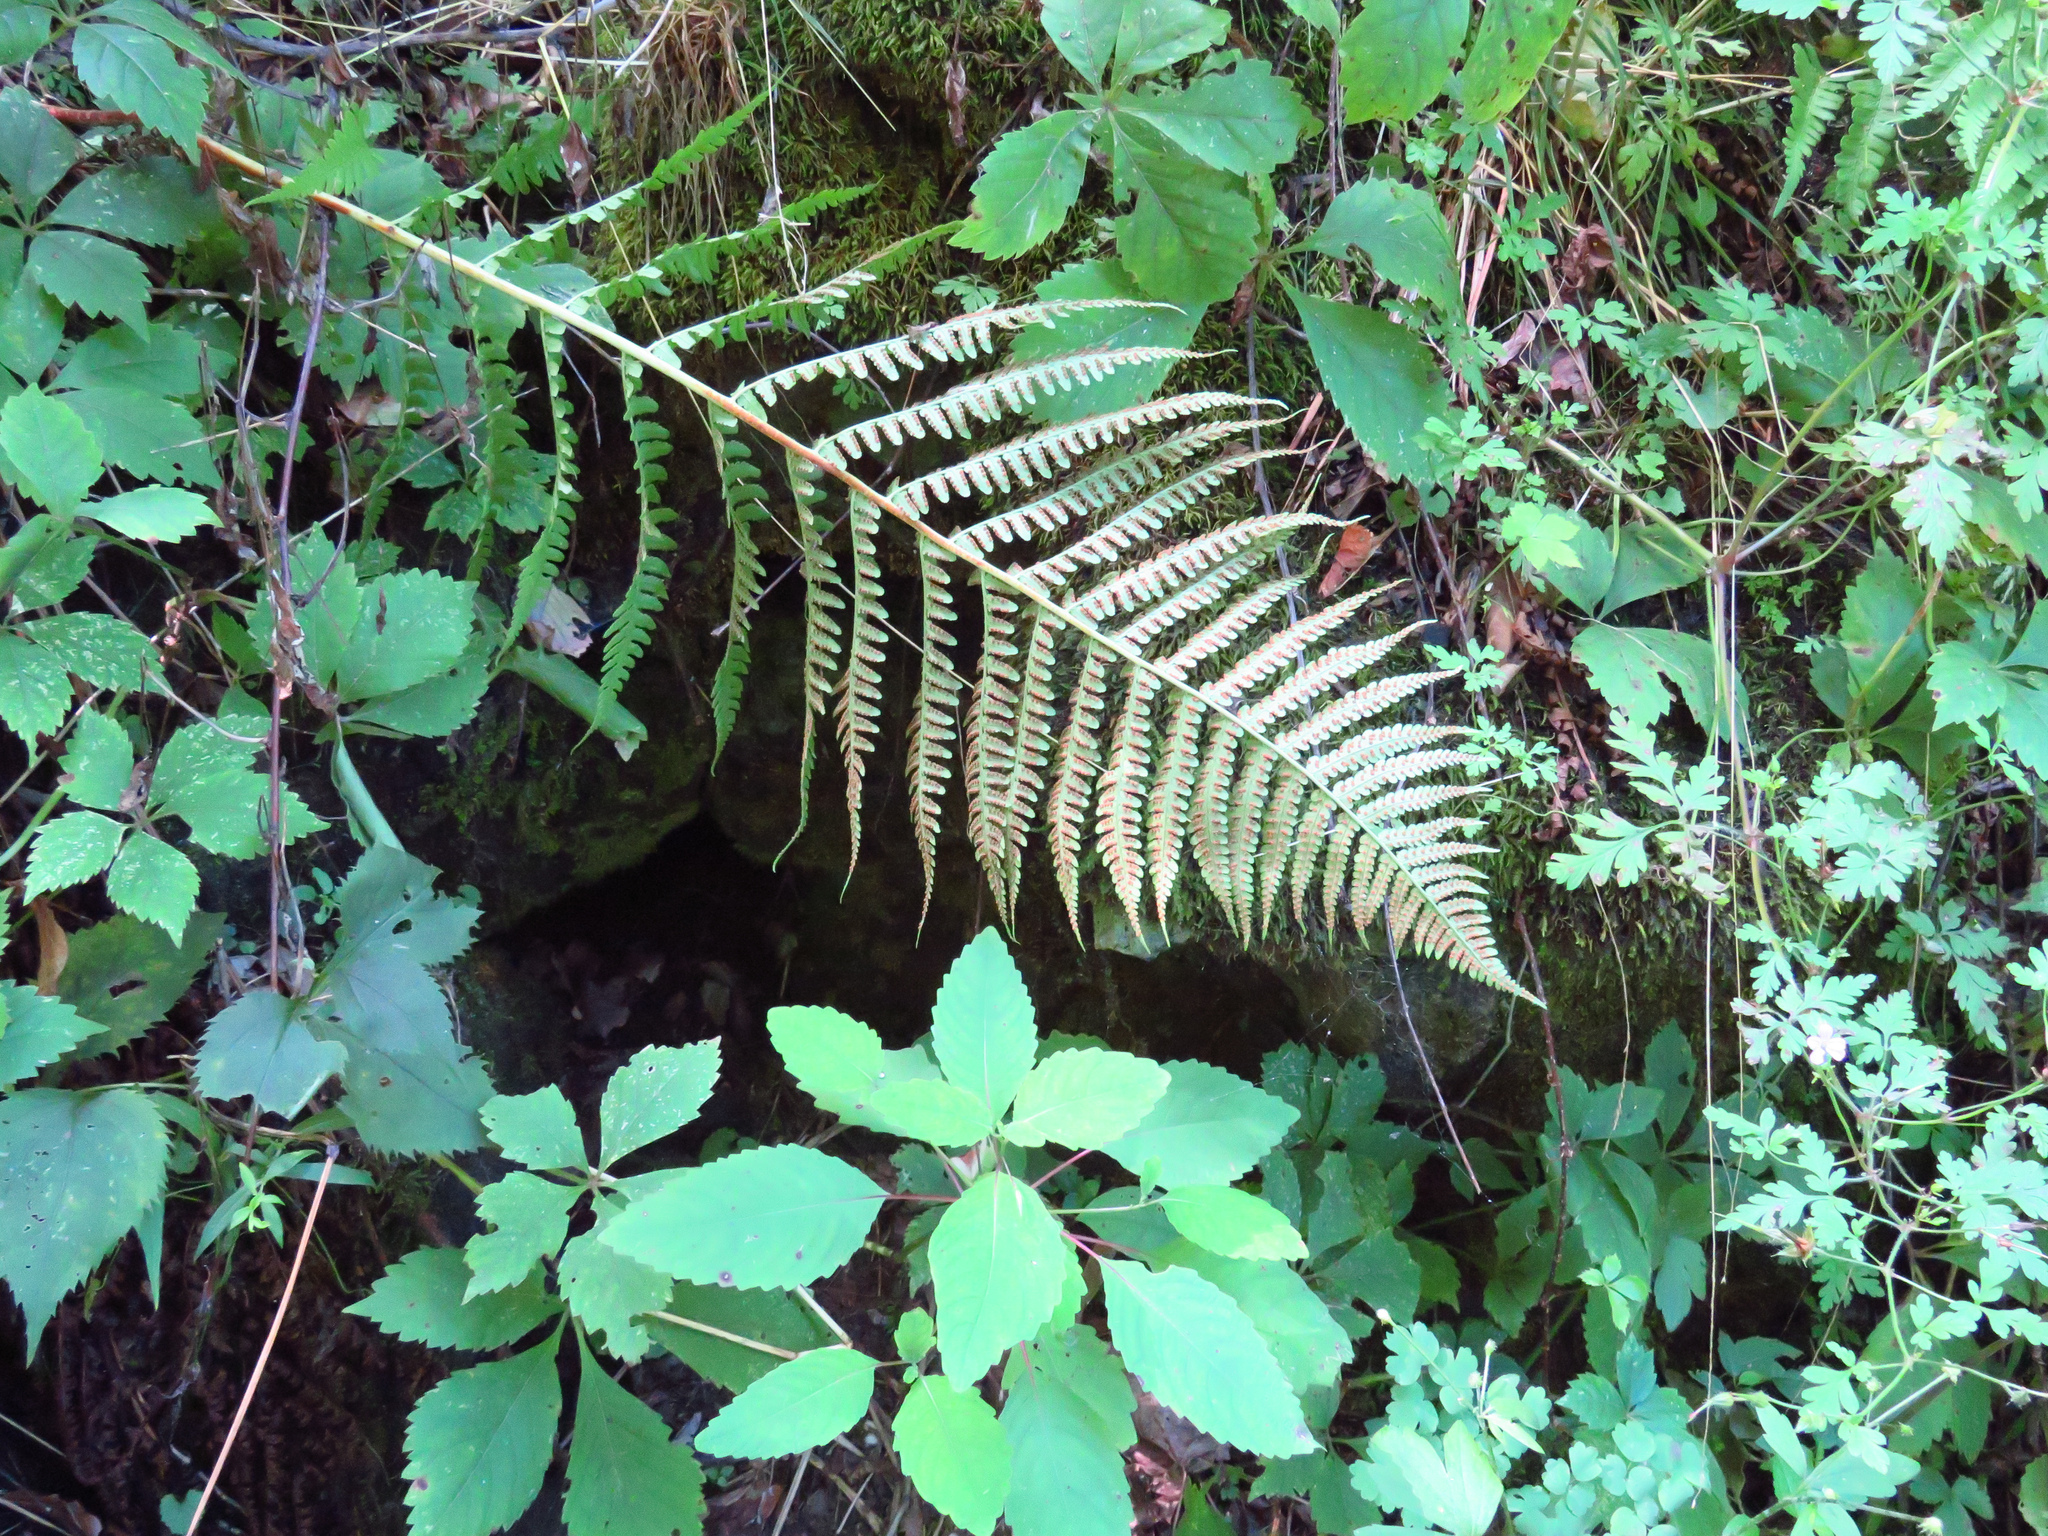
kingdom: Plantae
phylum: Tracheophyta
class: Polypodiopsida
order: Polypodiales
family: Dryopteridaceae
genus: Dryopteris
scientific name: Dryopteris marginalis
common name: Marginal wood fern
